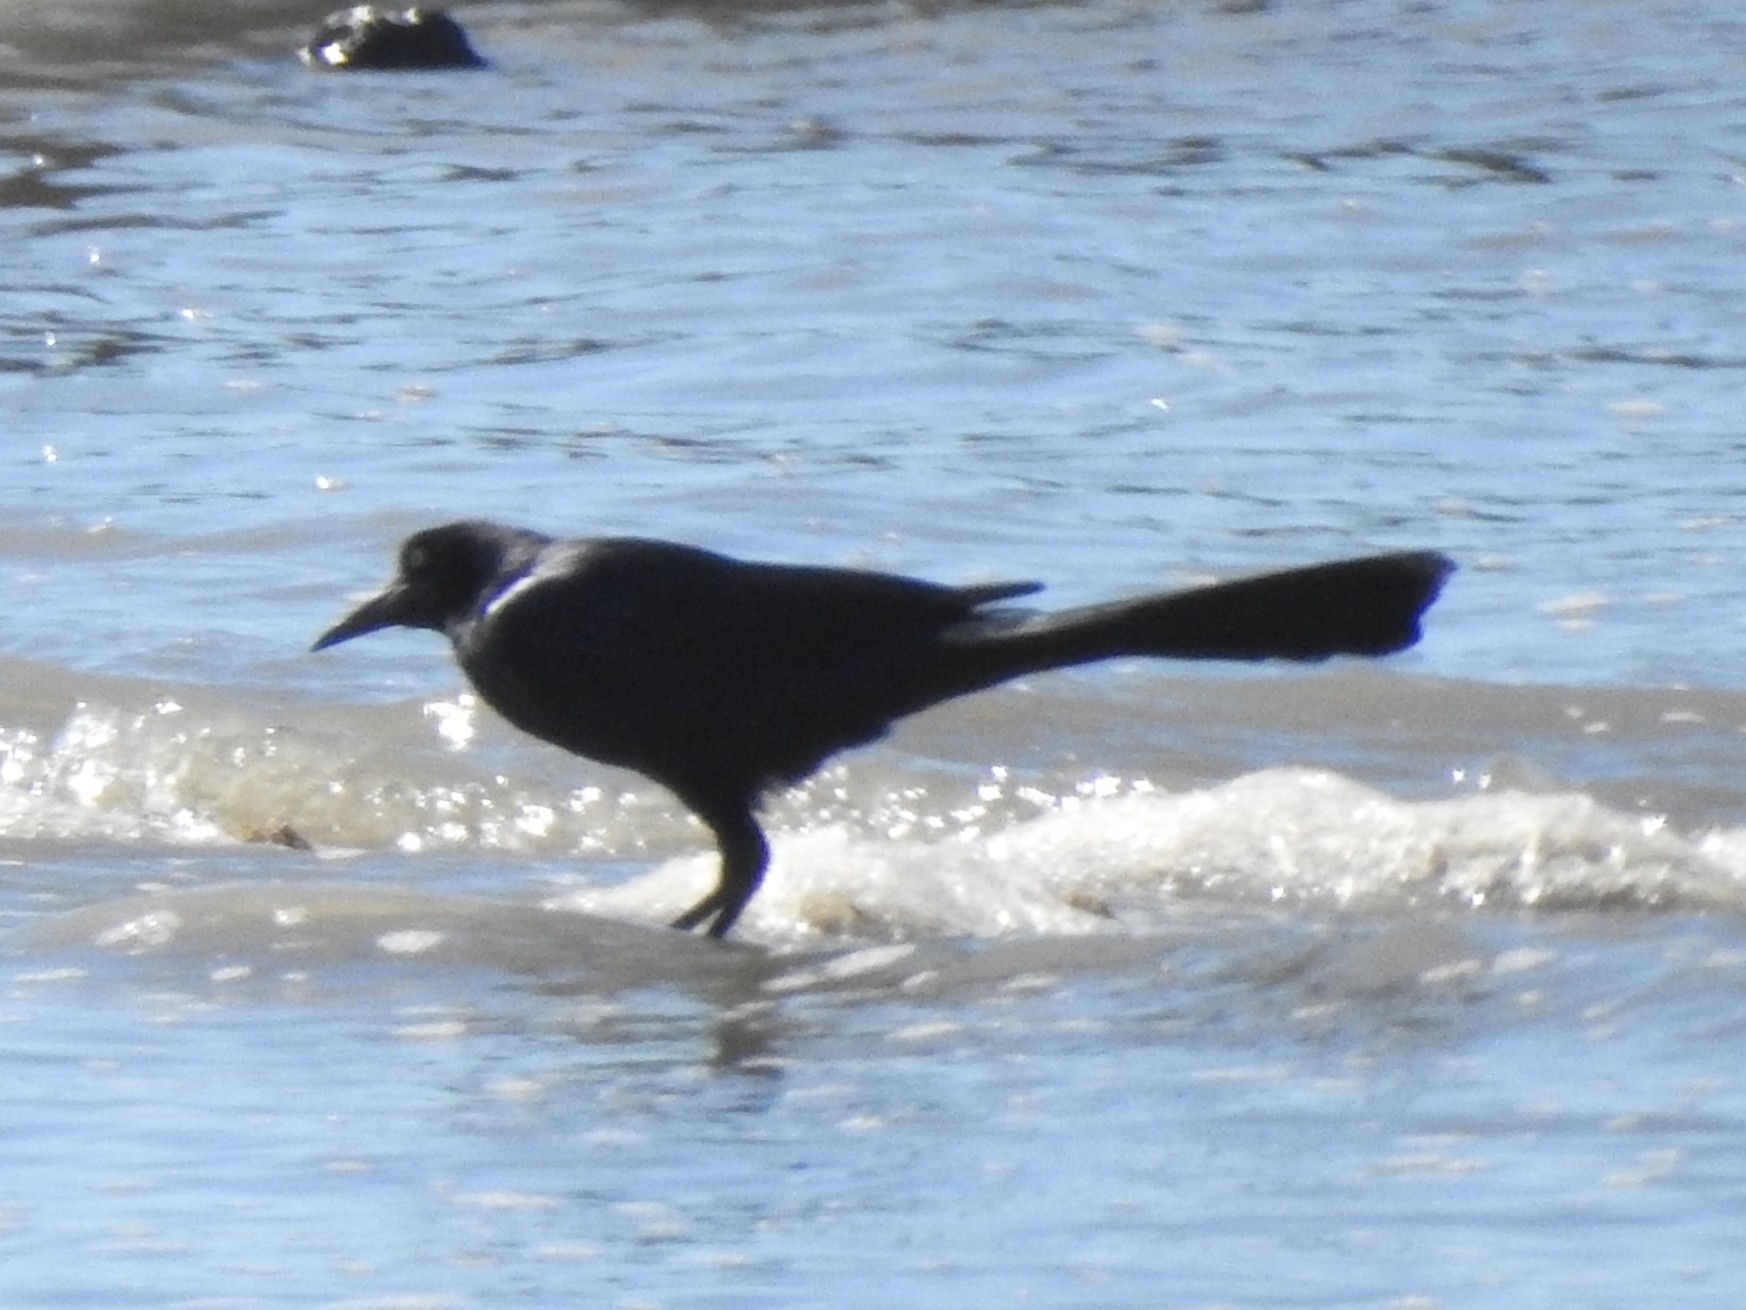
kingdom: Animalia
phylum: Chordata
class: Aves
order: Passeriformes
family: Icteridae
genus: Quiscalus
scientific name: Quiscalus mexicanus
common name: Great-tailed grackle
